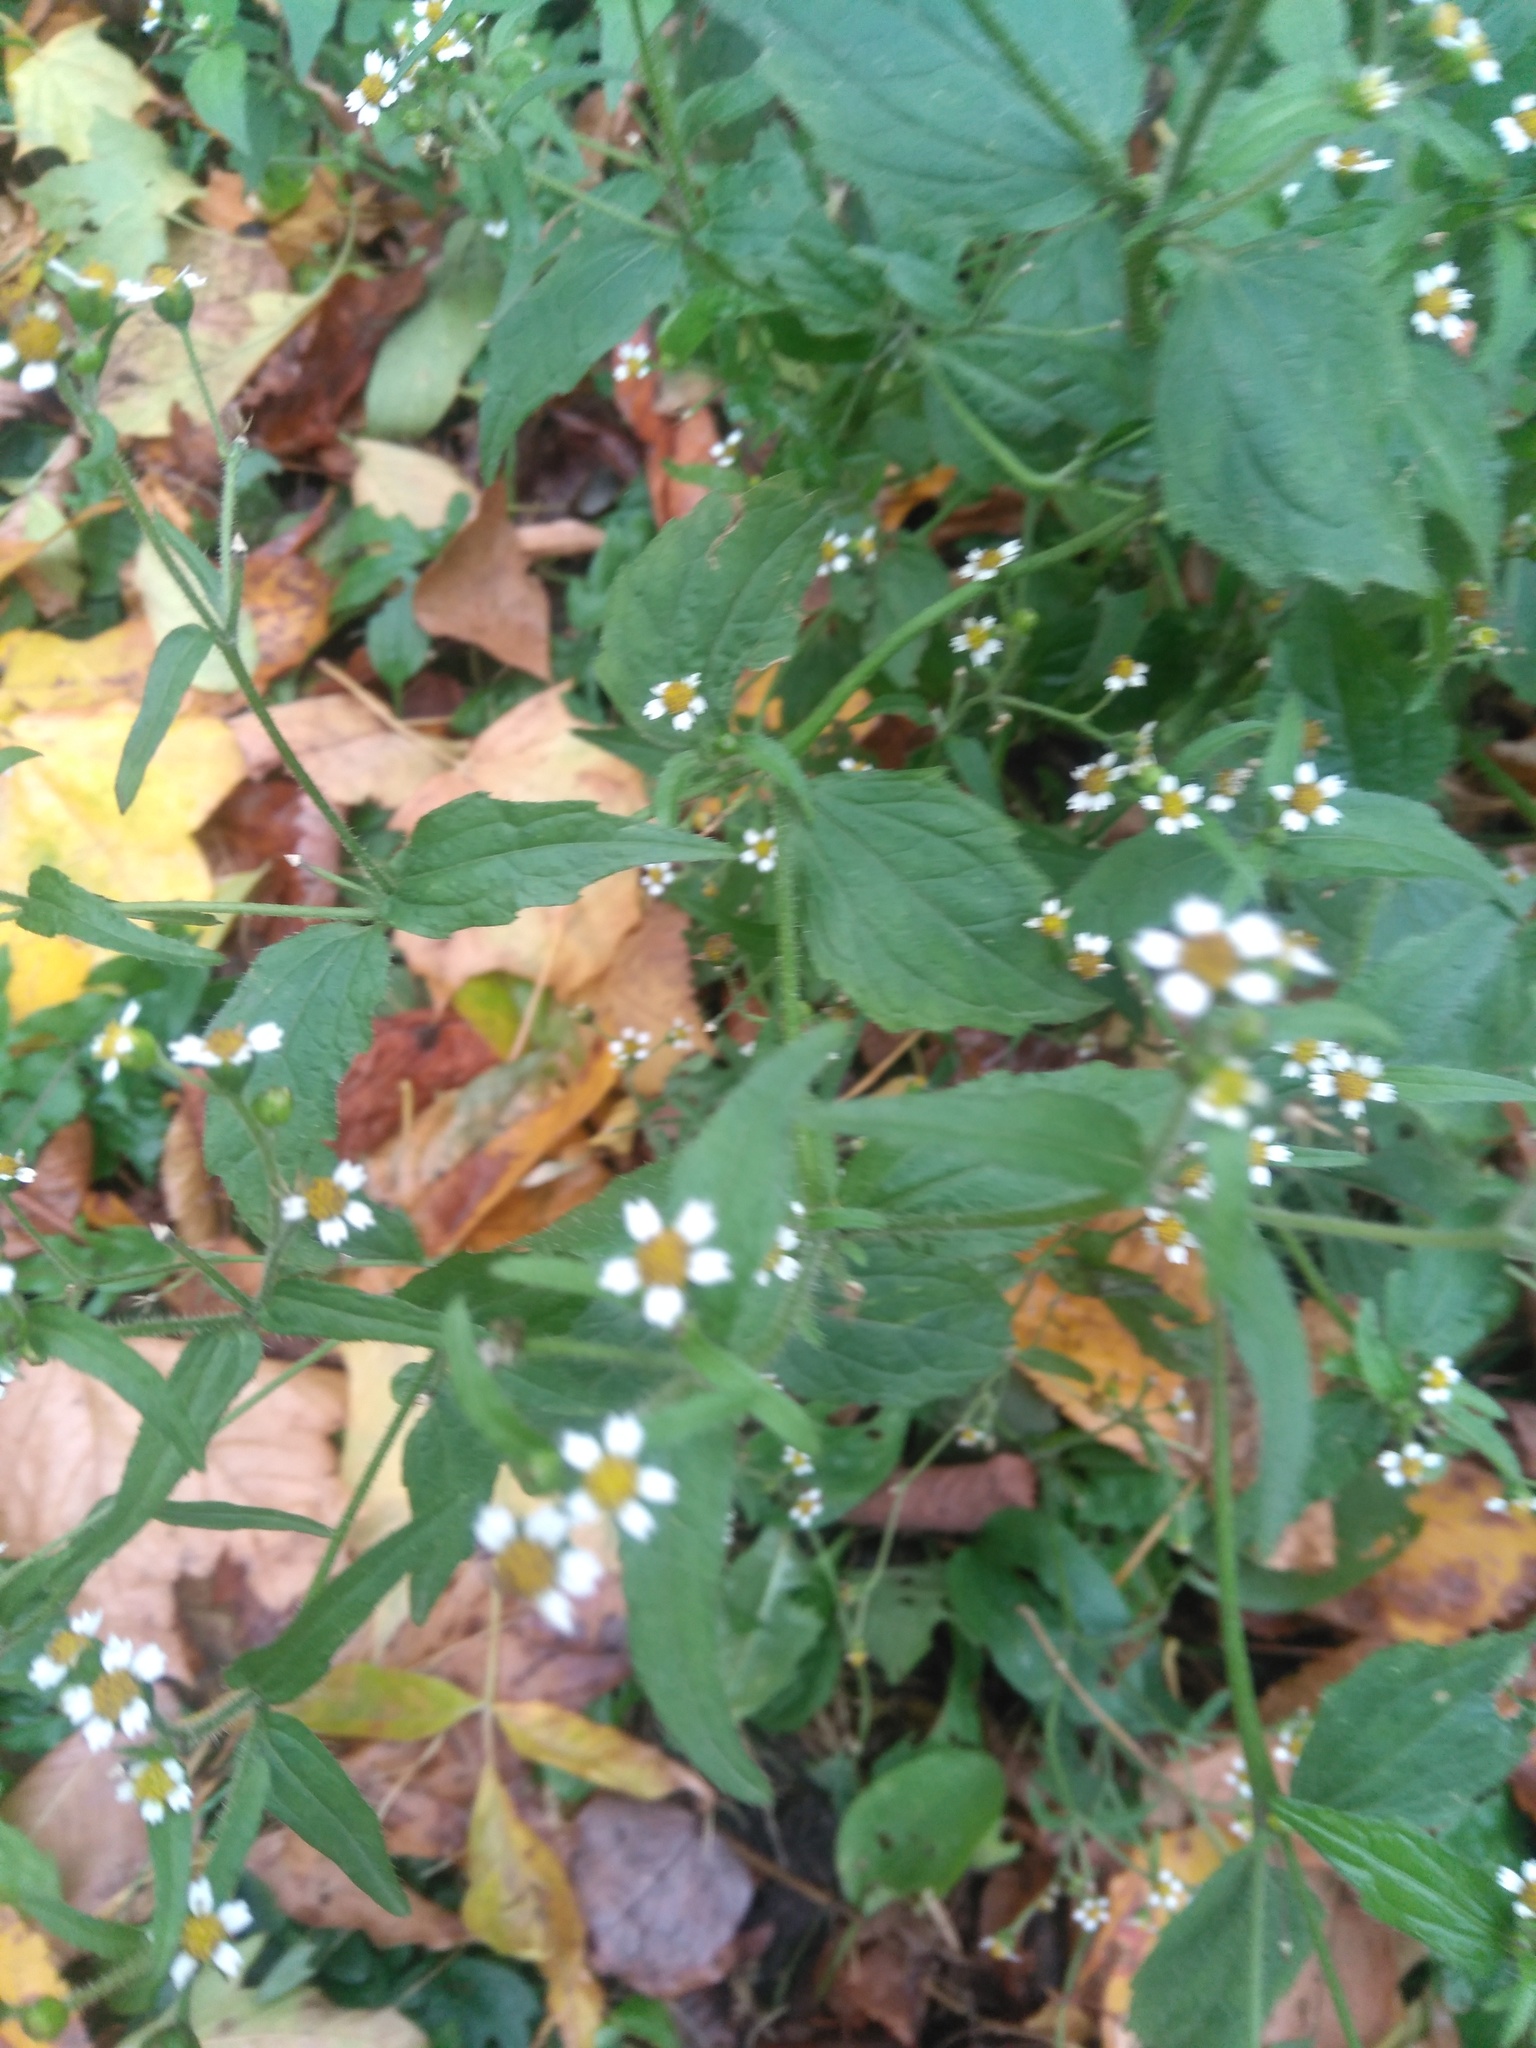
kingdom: Plantae
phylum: Tracheophyta
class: Magnoliopsida
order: Asterales
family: Asteraceae
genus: Galinsoga
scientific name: Galinsoga quadriradiata
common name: Shaggy soldier
